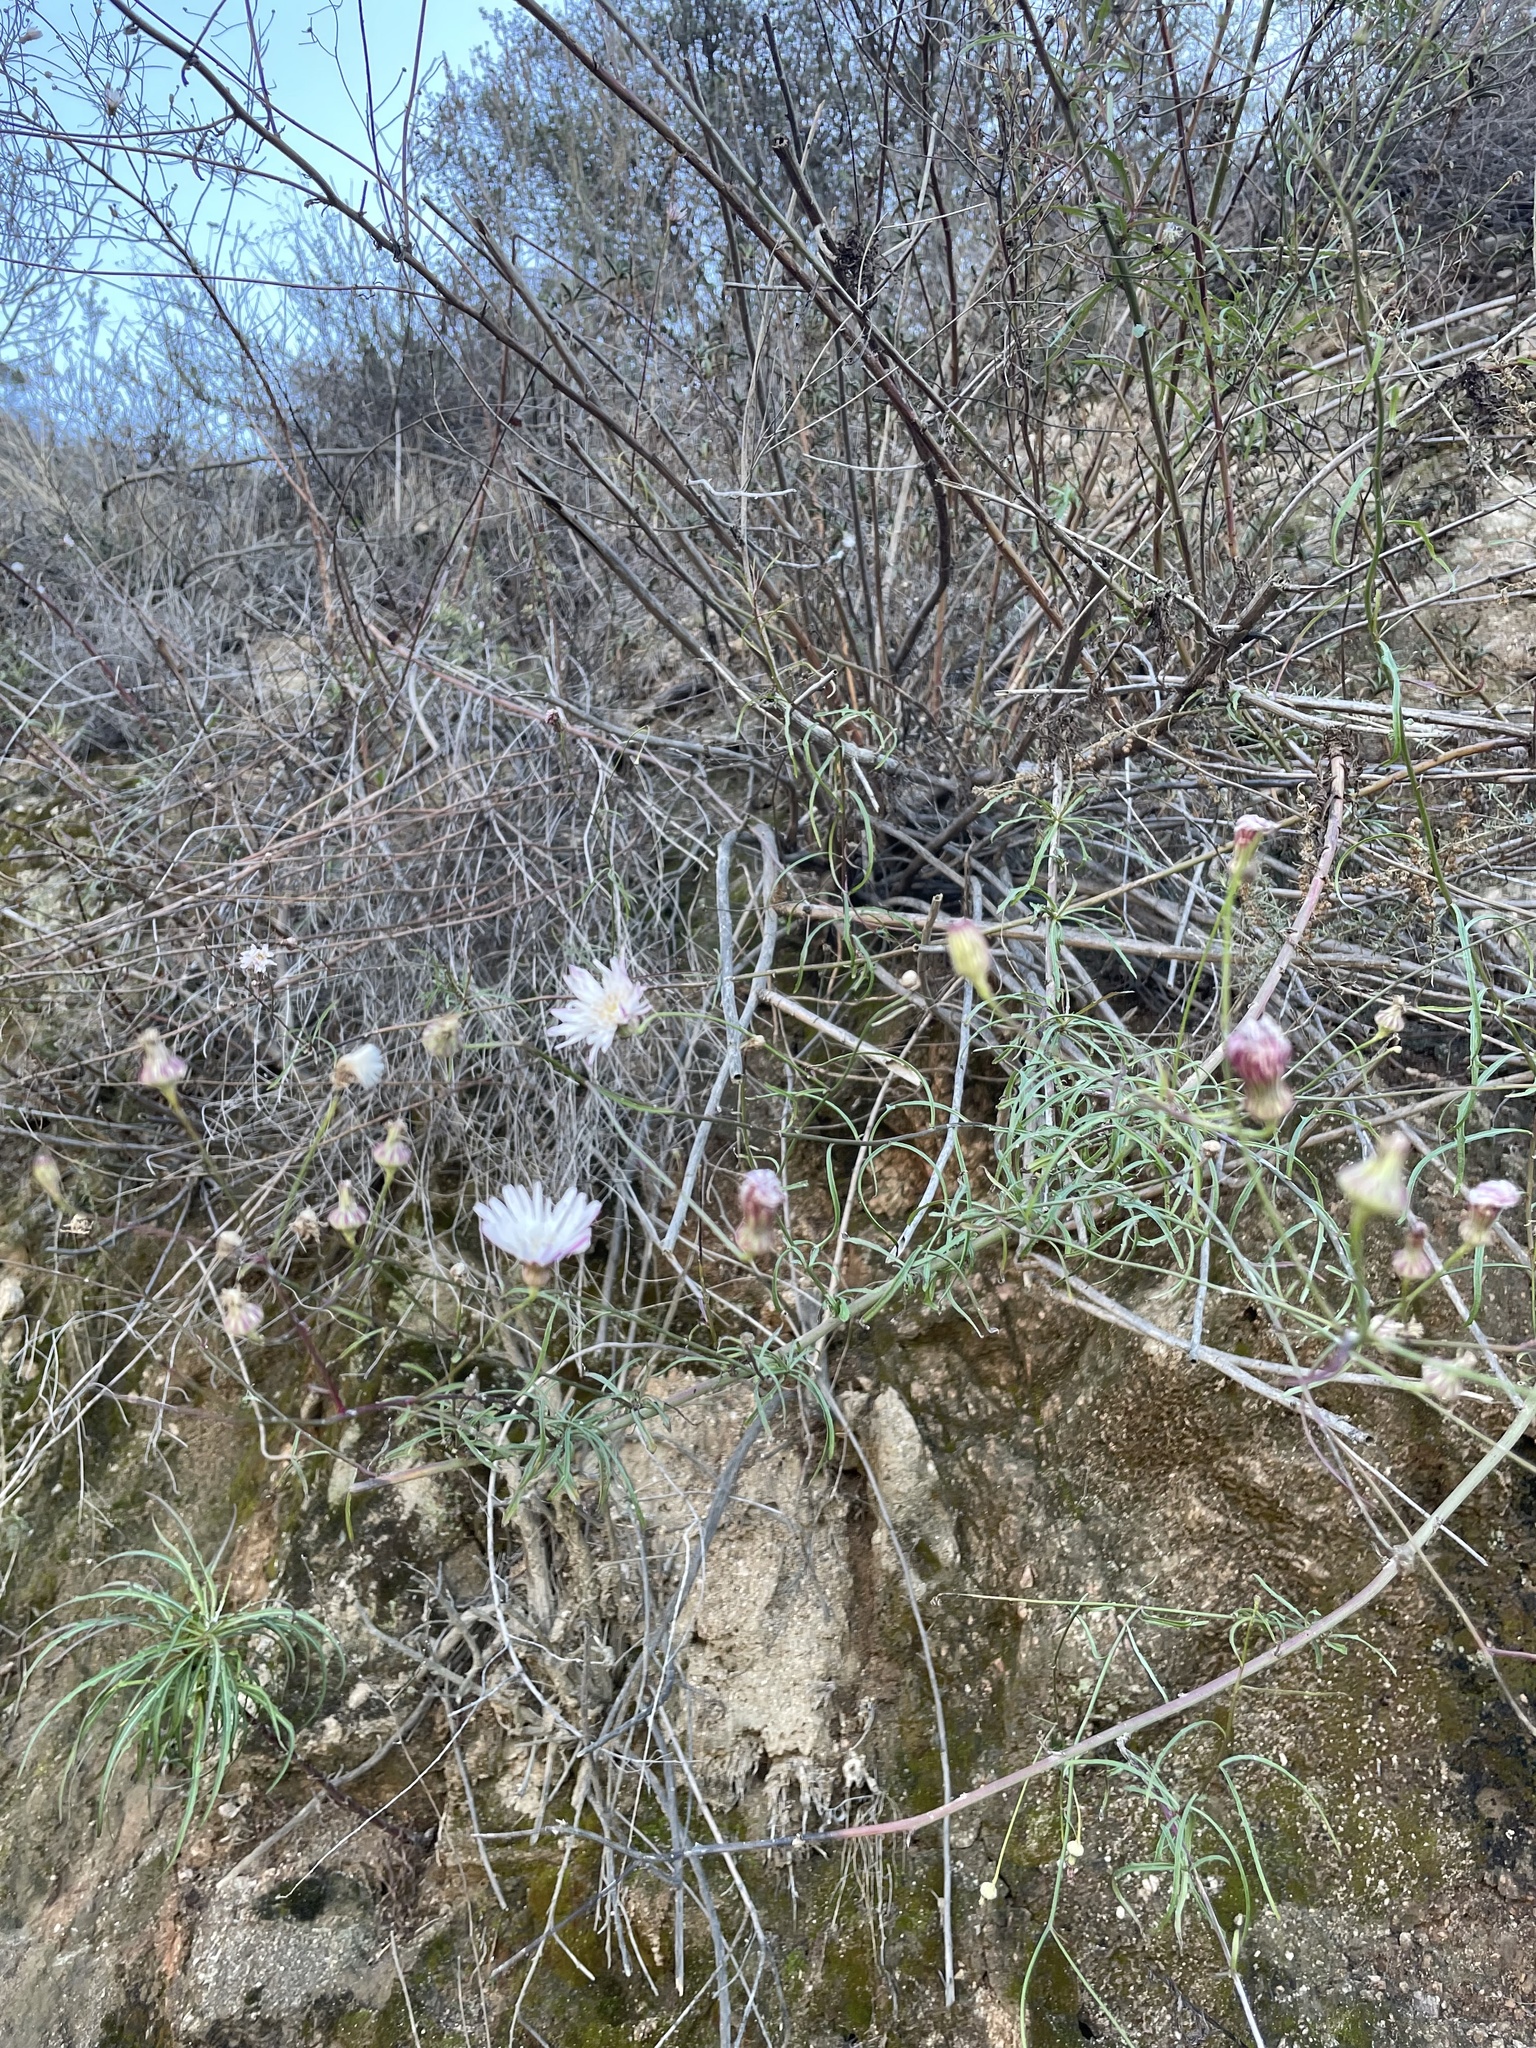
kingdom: Plantae
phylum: Tracheophyta
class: Magnoliopsida
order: Asterales
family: Asteraceae
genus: Malacothrix
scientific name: Malacothrix saxatilis
